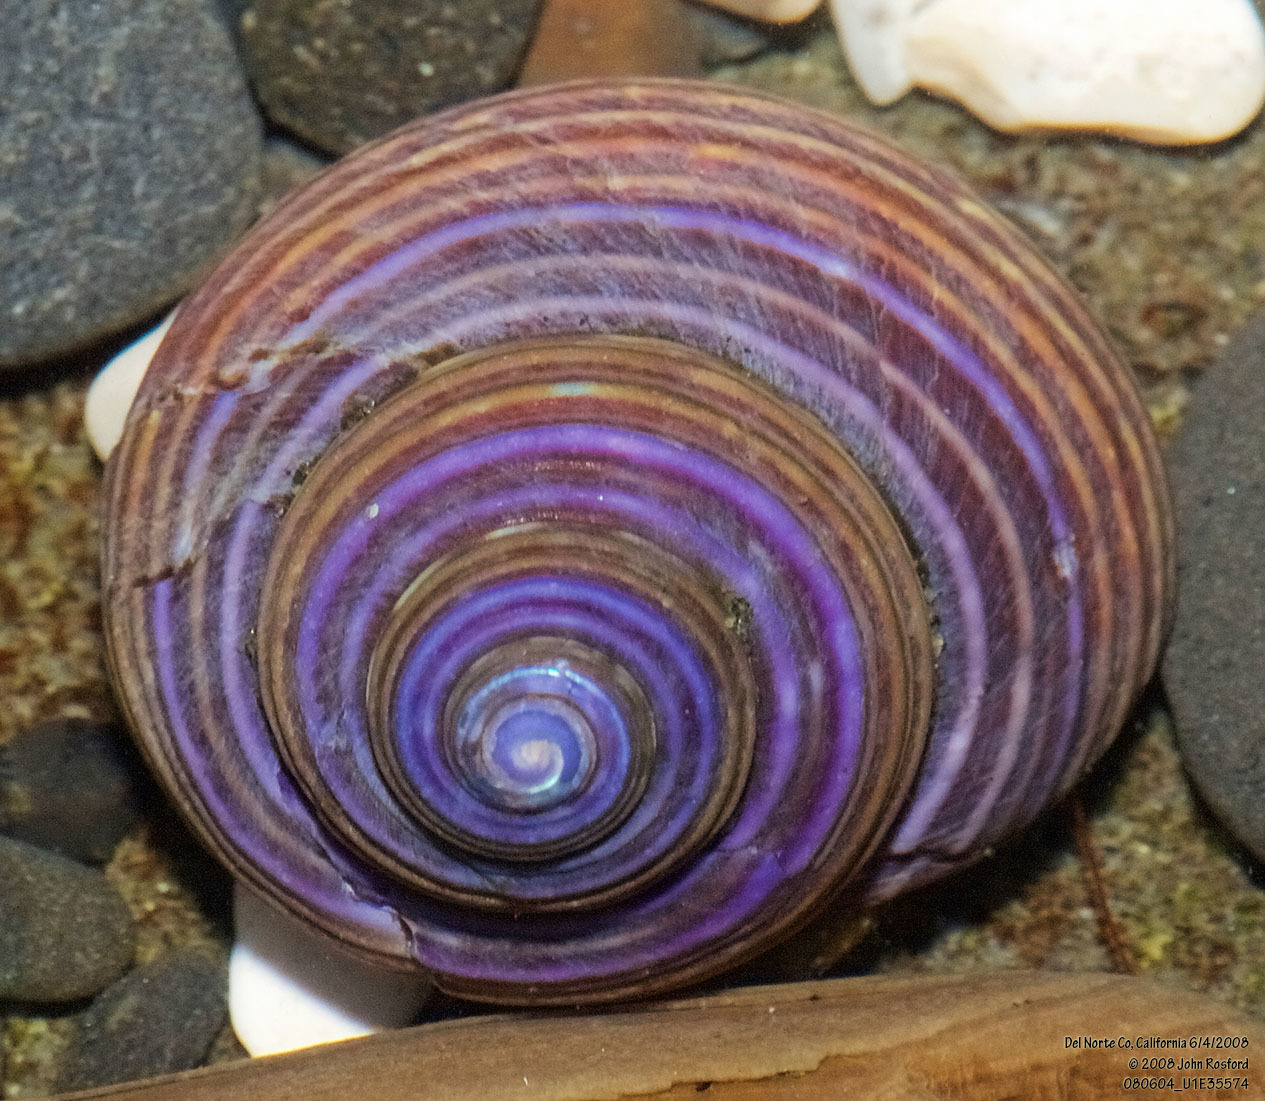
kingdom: Animalia
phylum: Mollusca
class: Gastropoda
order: Trochida
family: Calliostomatidae
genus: Calliostoma
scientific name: Calliostoma ligatum
